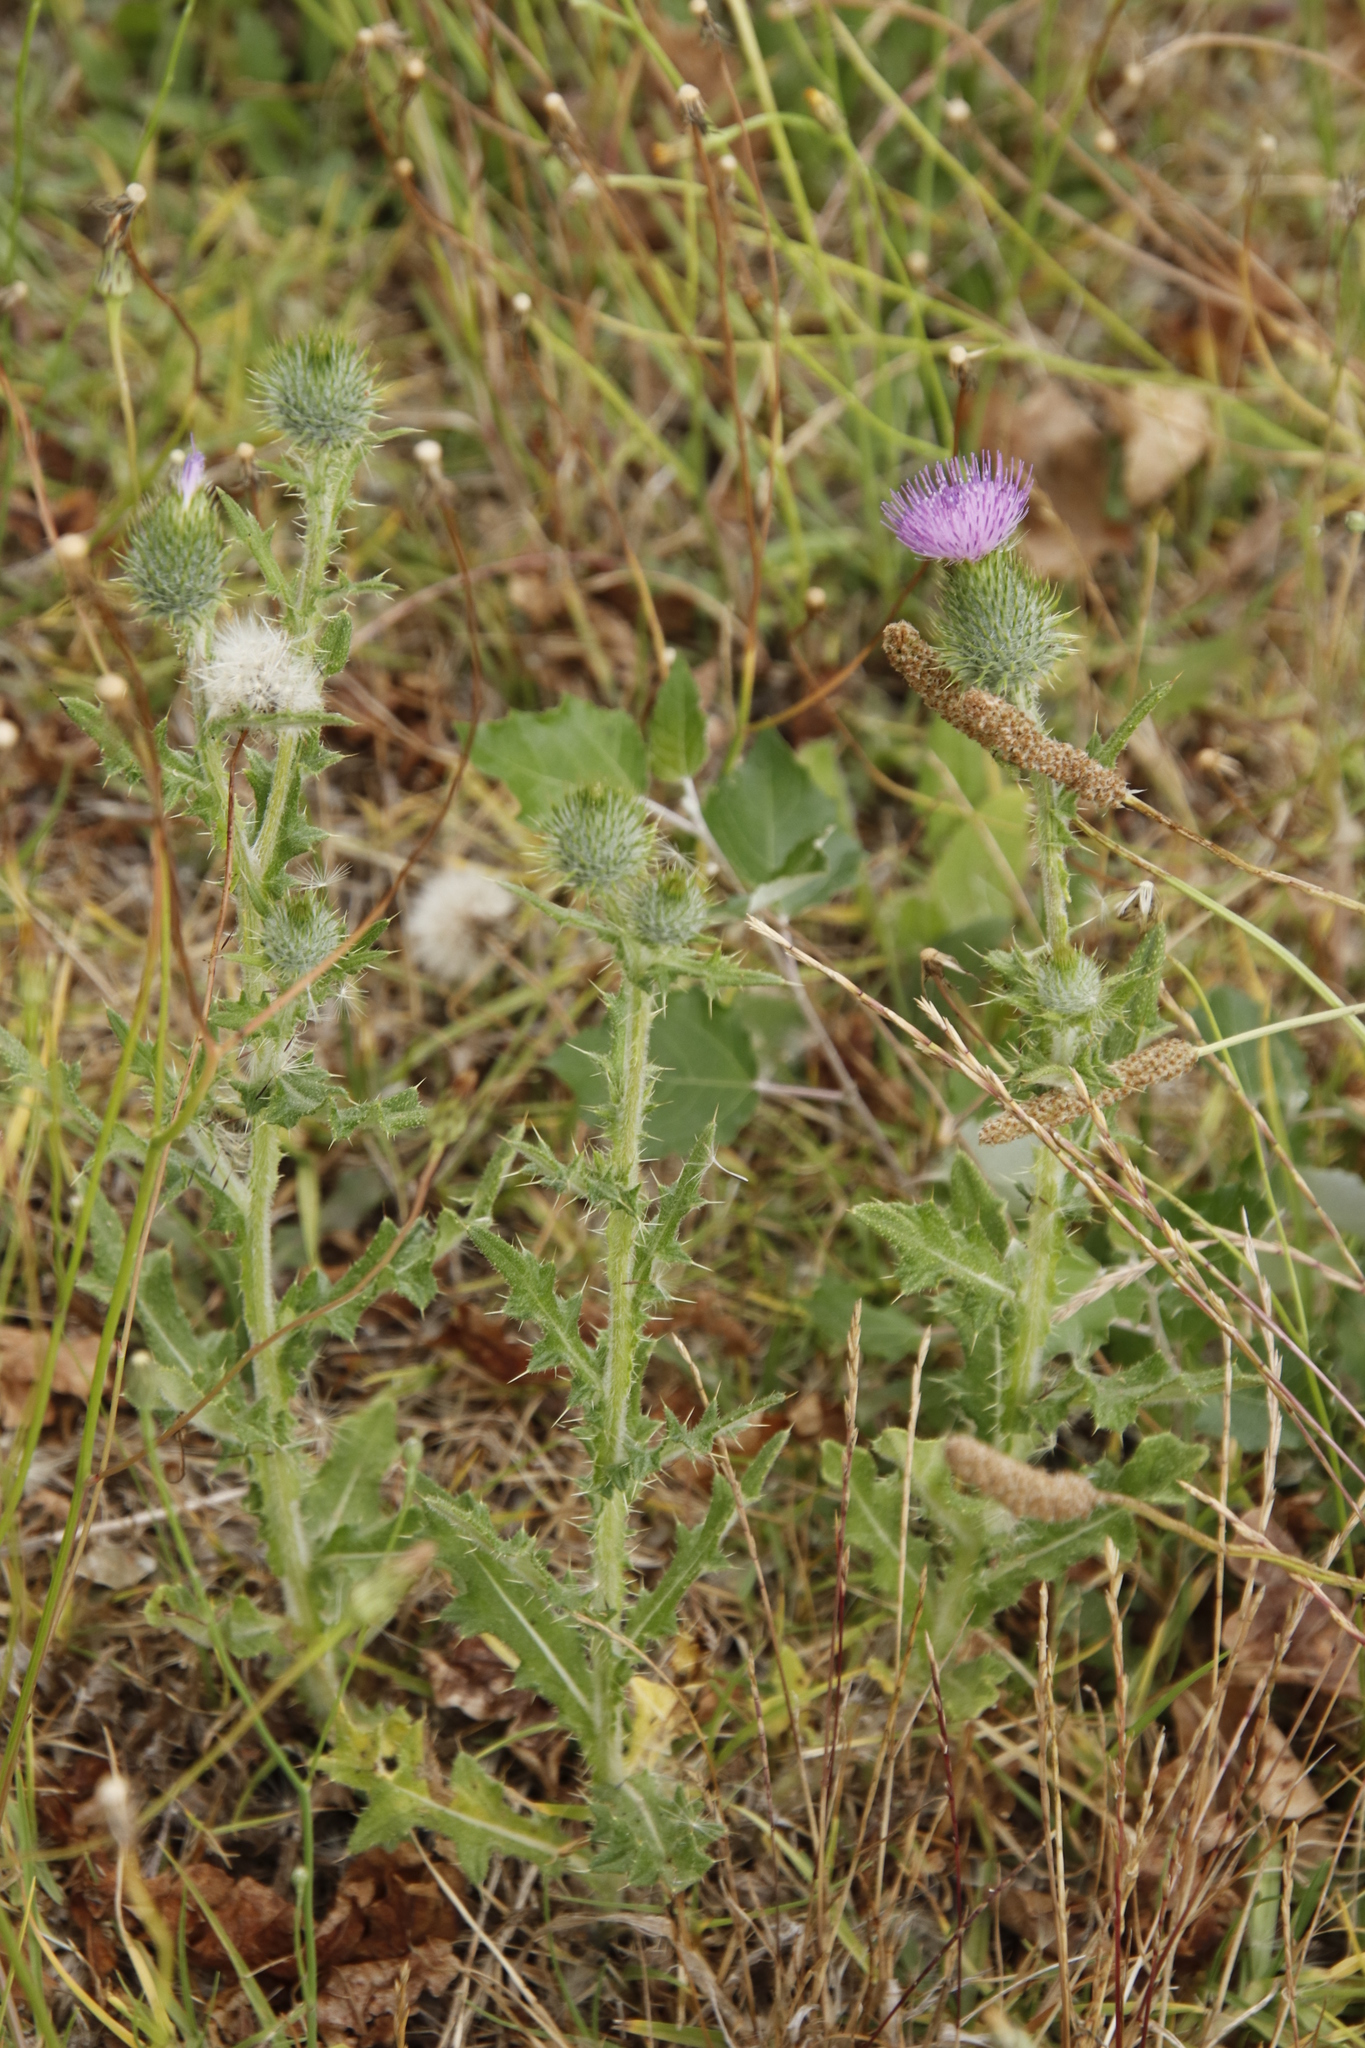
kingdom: Plantae
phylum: Tracheophyta
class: Magnoliopsida
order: Asterales
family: Asteraceae
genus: Cirsium
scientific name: Cirsium vulgare
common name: Bull thistle
